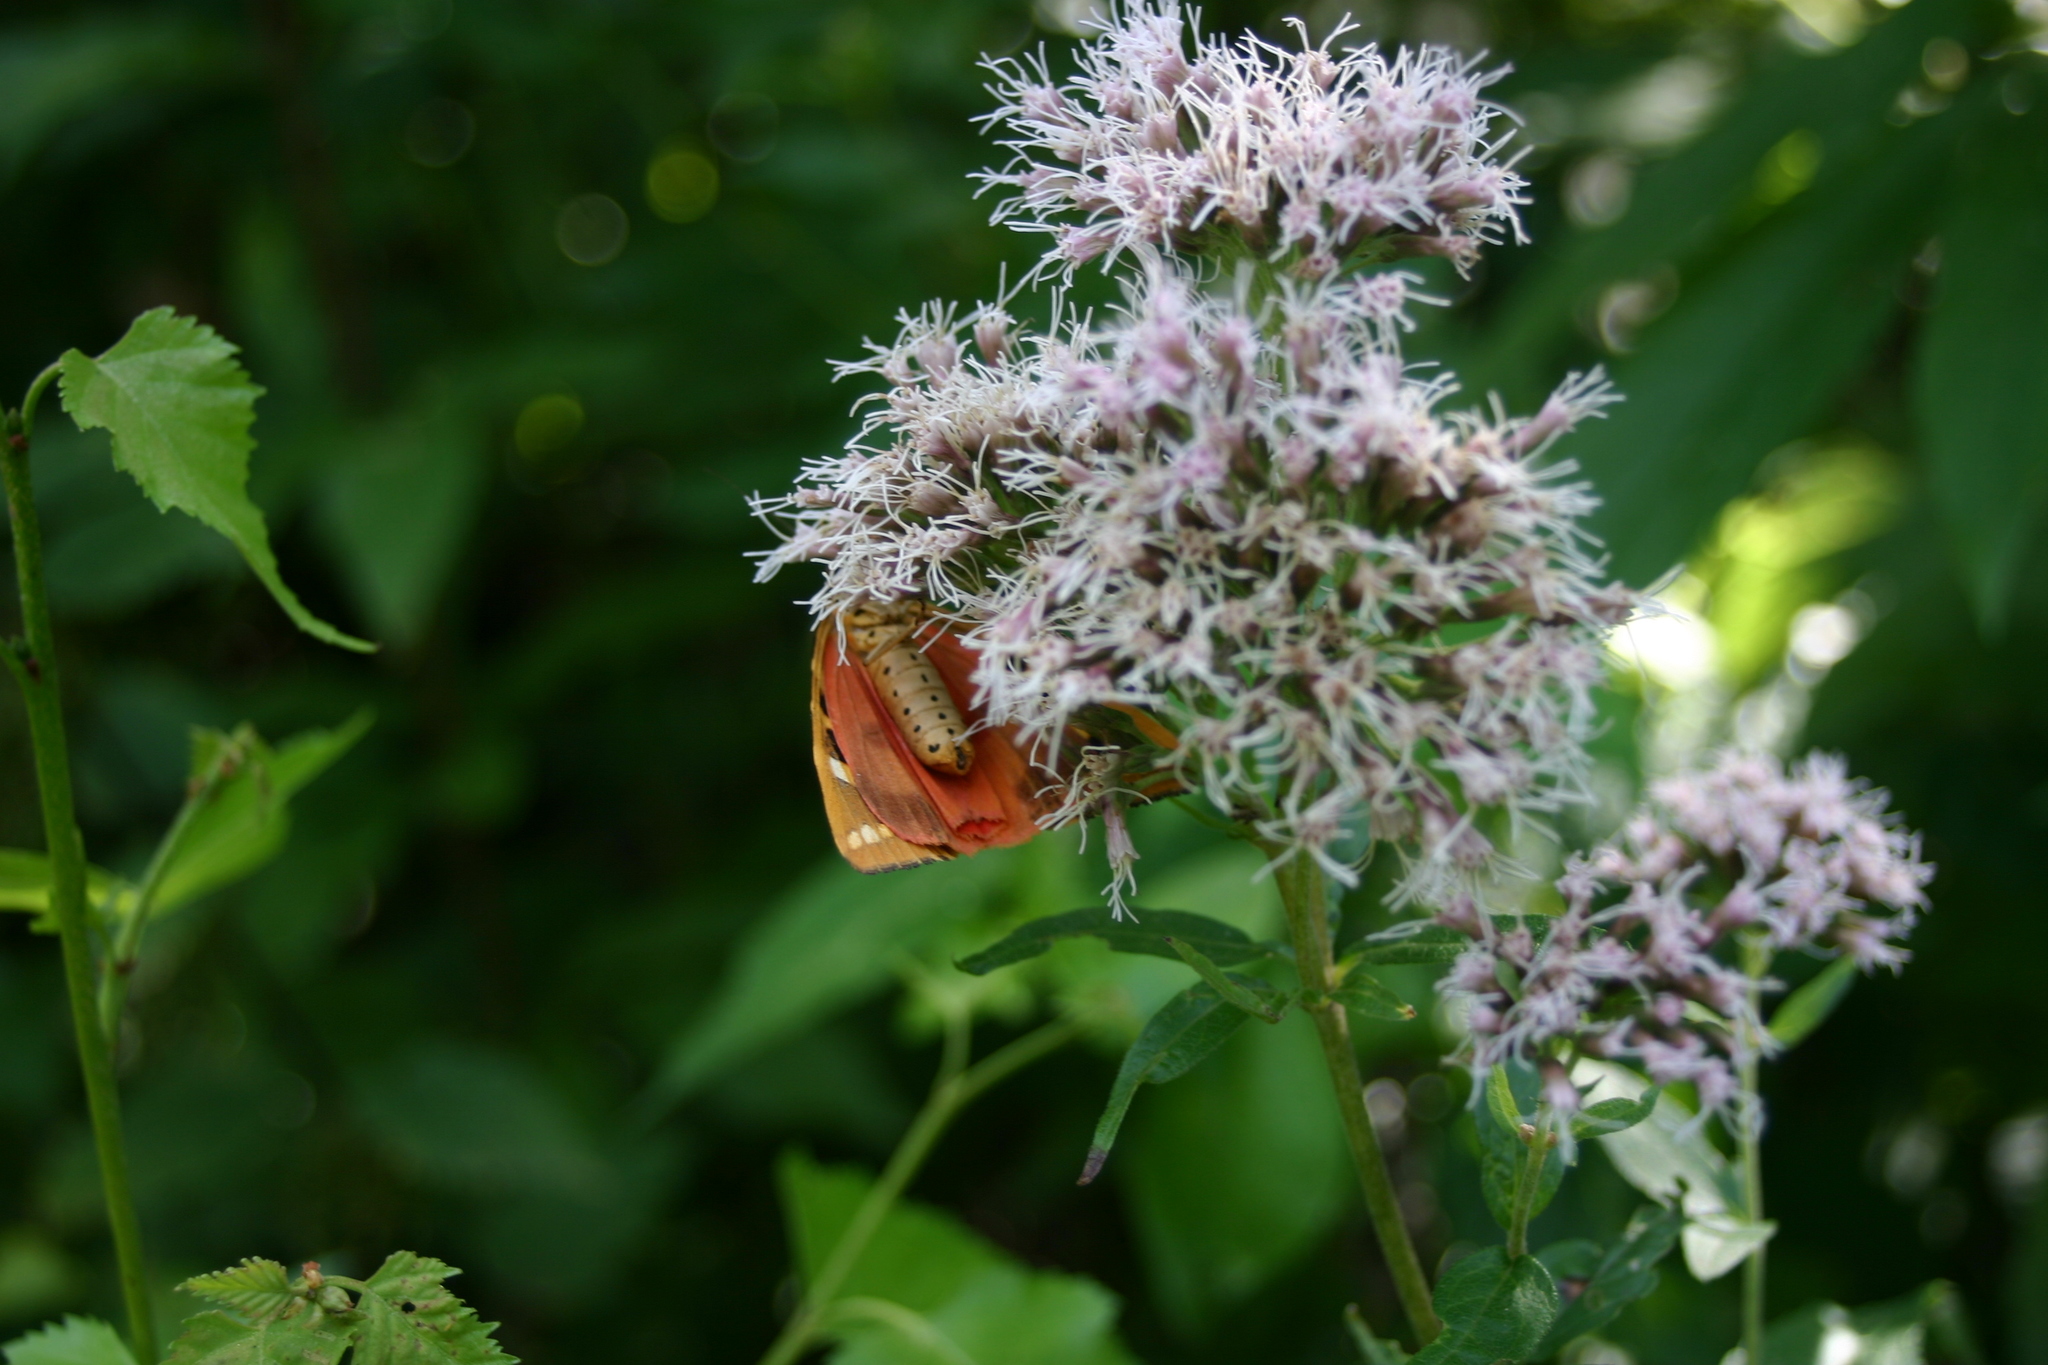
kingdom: Animalia
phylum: Arthropoda
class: Insecta
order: Lepidoptera
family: Erebidae
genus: Euplagia
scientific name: Euplagia quadripunctaria
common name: Jersey tiger
